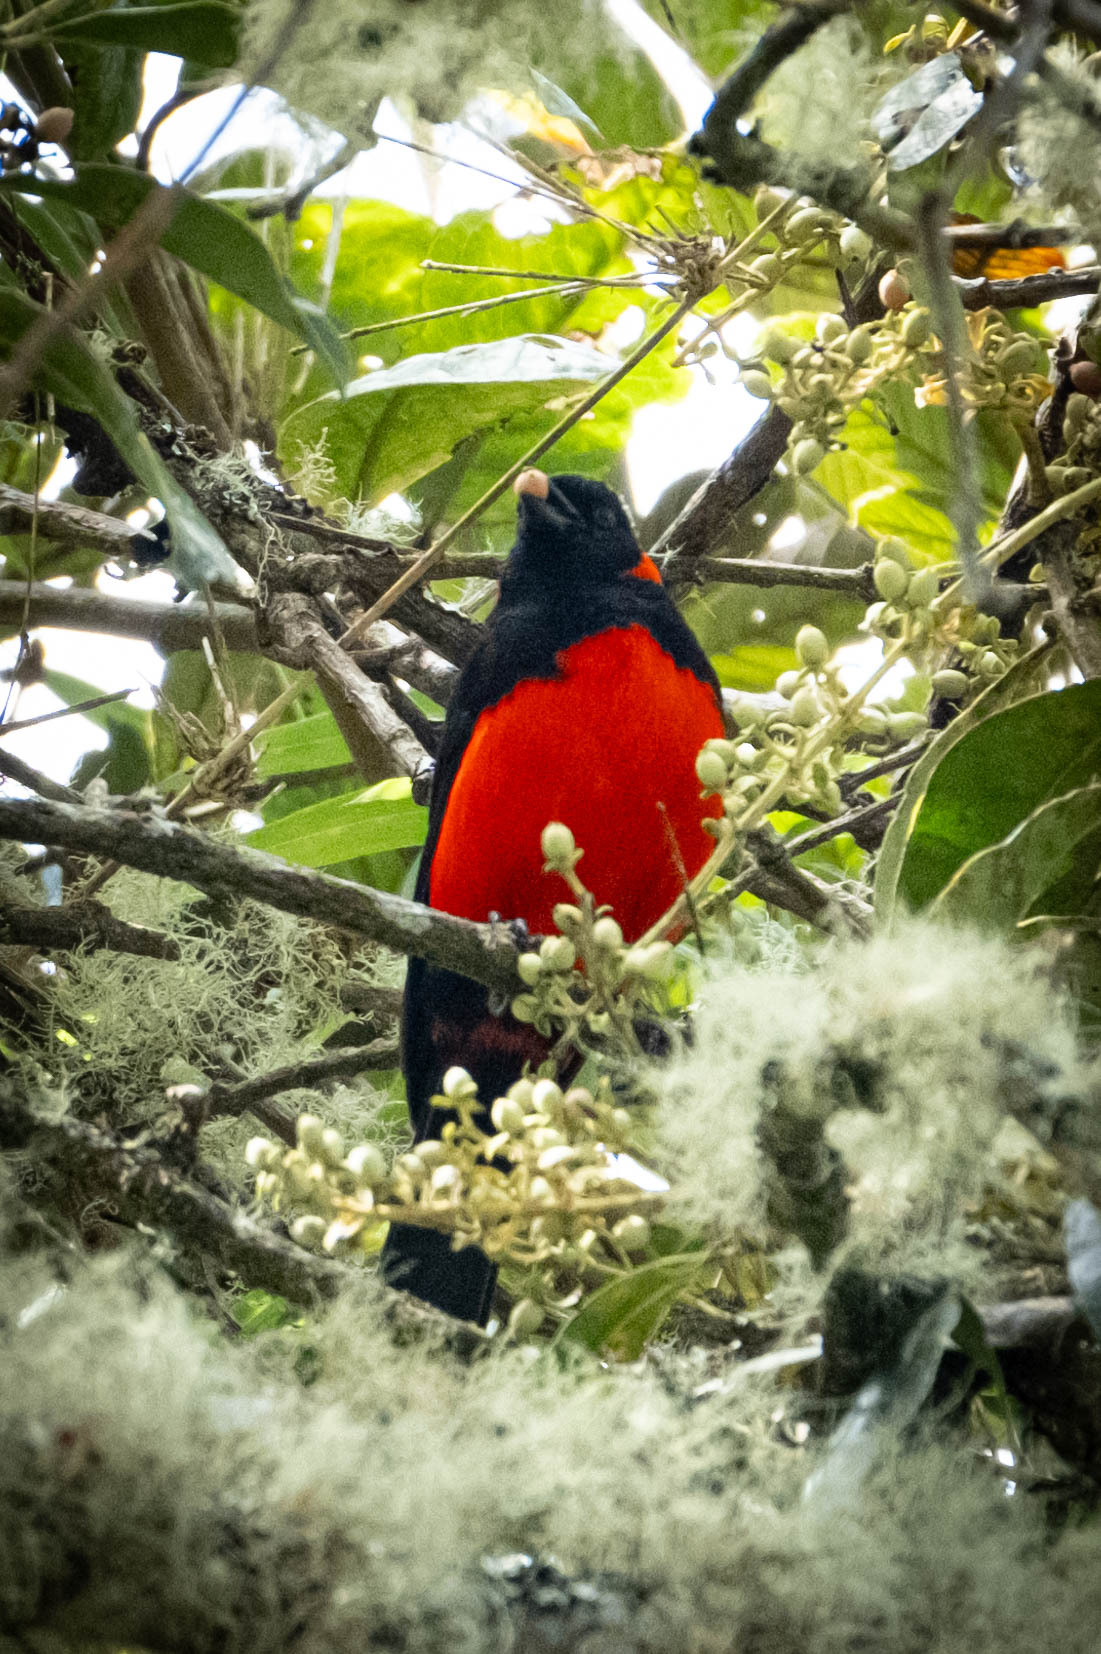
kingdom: Animalia
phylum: Chordata
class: Aves
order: Passeriformes
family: Thraupidae
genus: Anisognathus
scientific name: Anisognathus igniventris
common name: Scarlet-bellied mountain tanager
